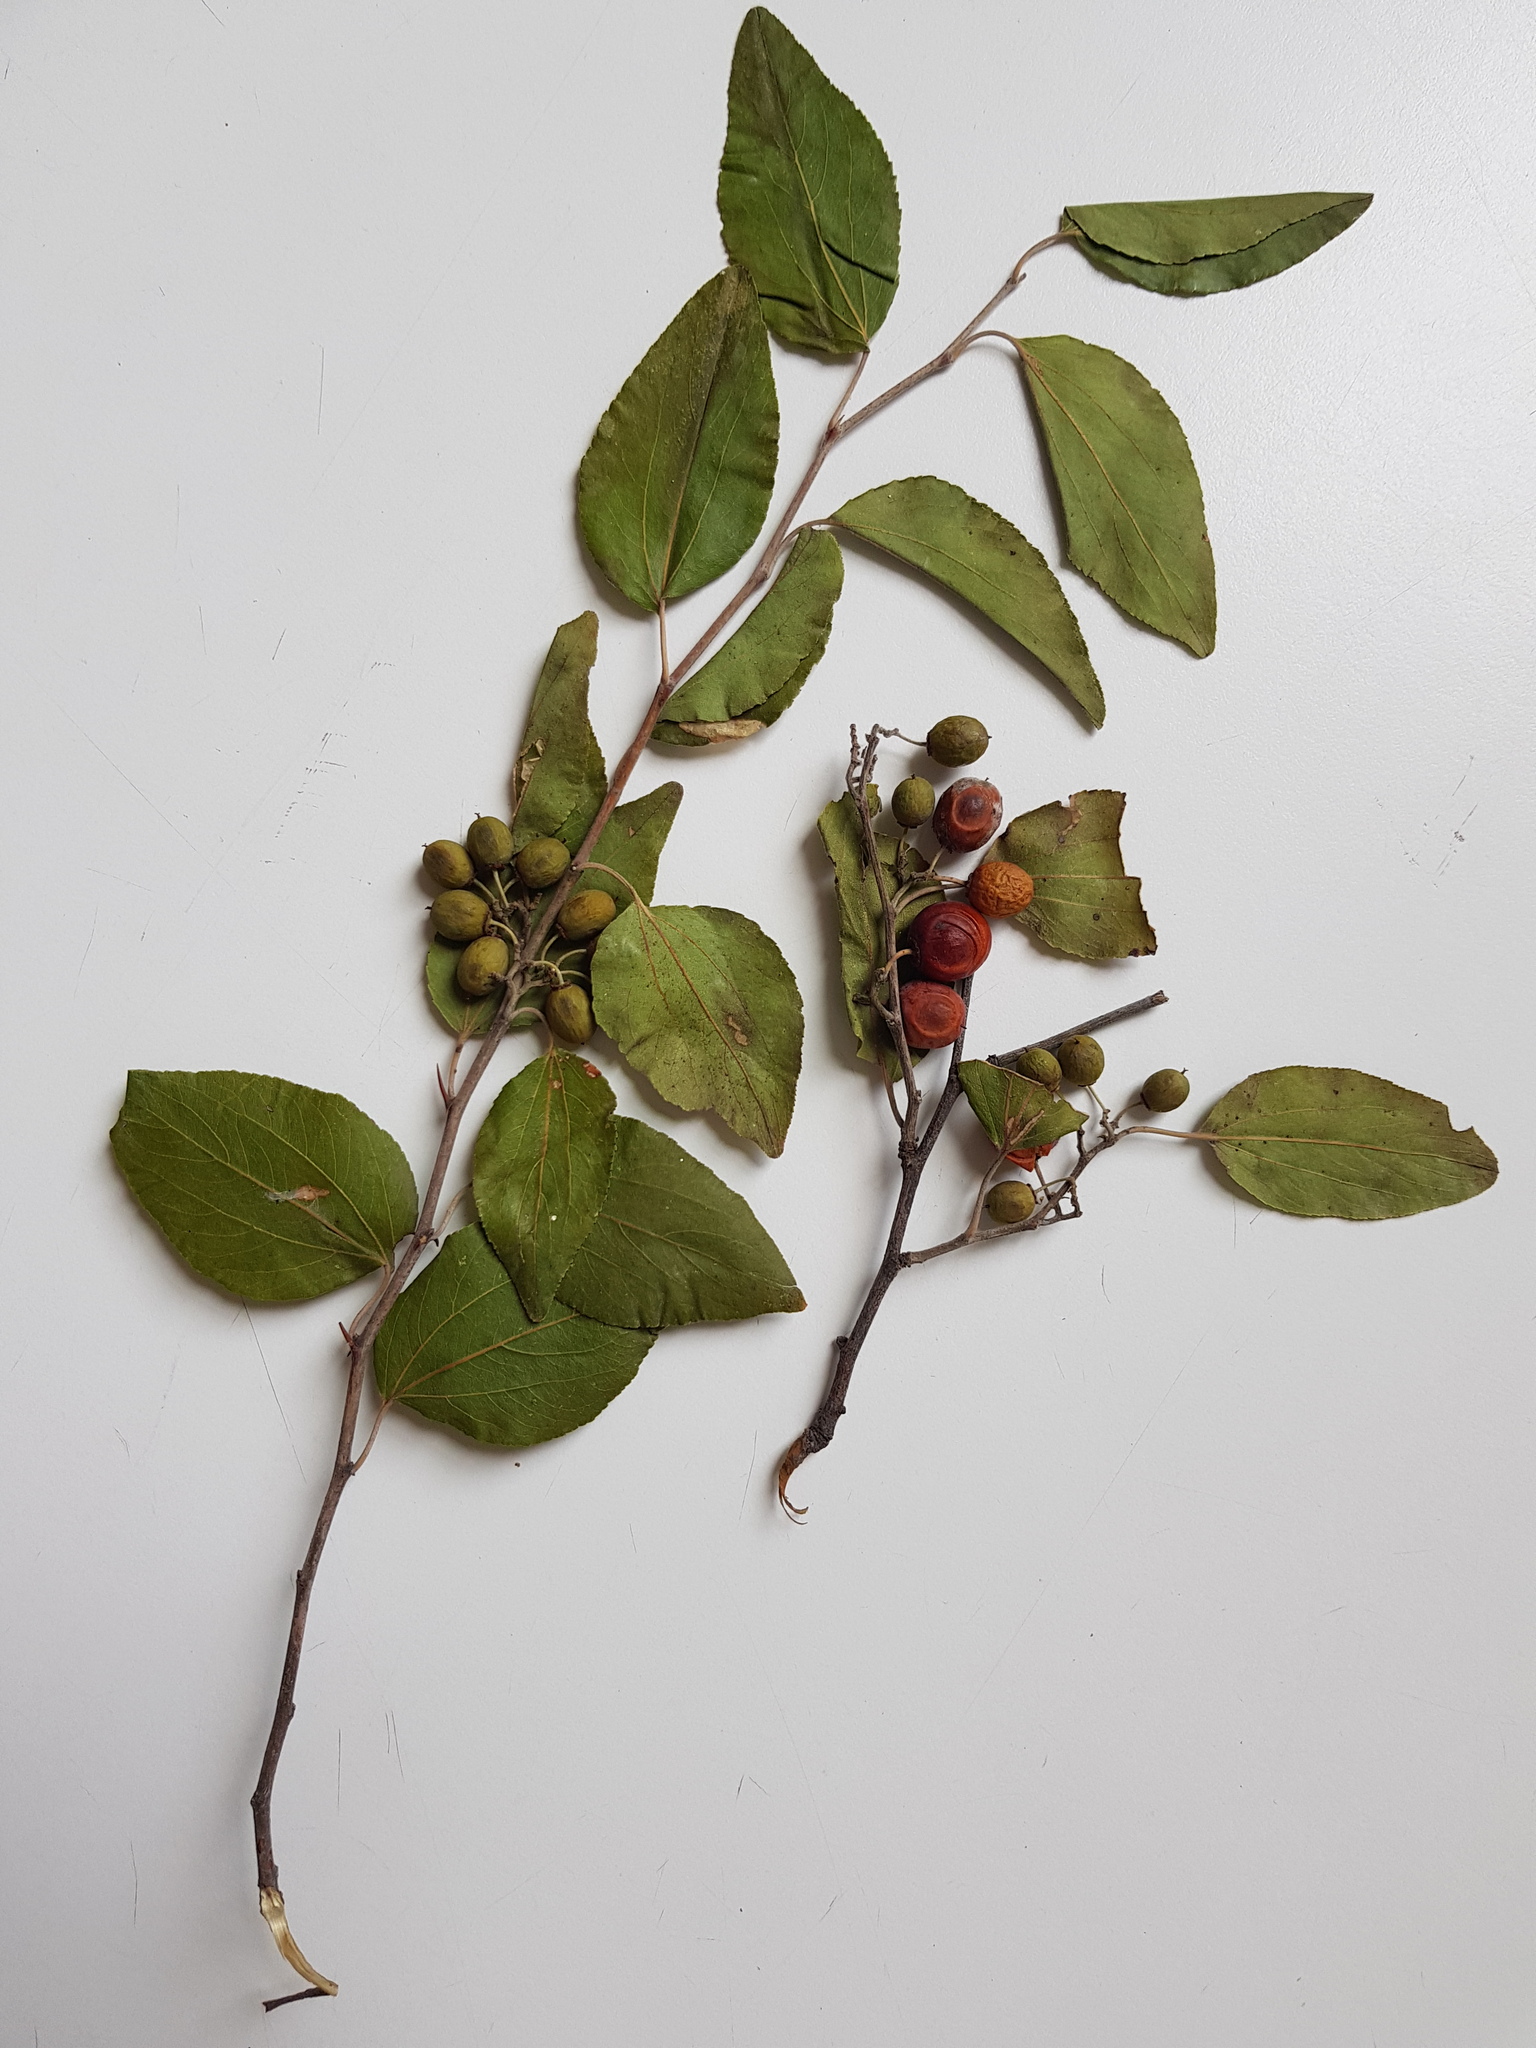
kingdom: Plantae
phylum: Tracheophyta
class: Magnoliopsida
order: Rosales
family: Rhamnaceae
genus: Ziziphus
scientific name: Ziziphus mucronata
